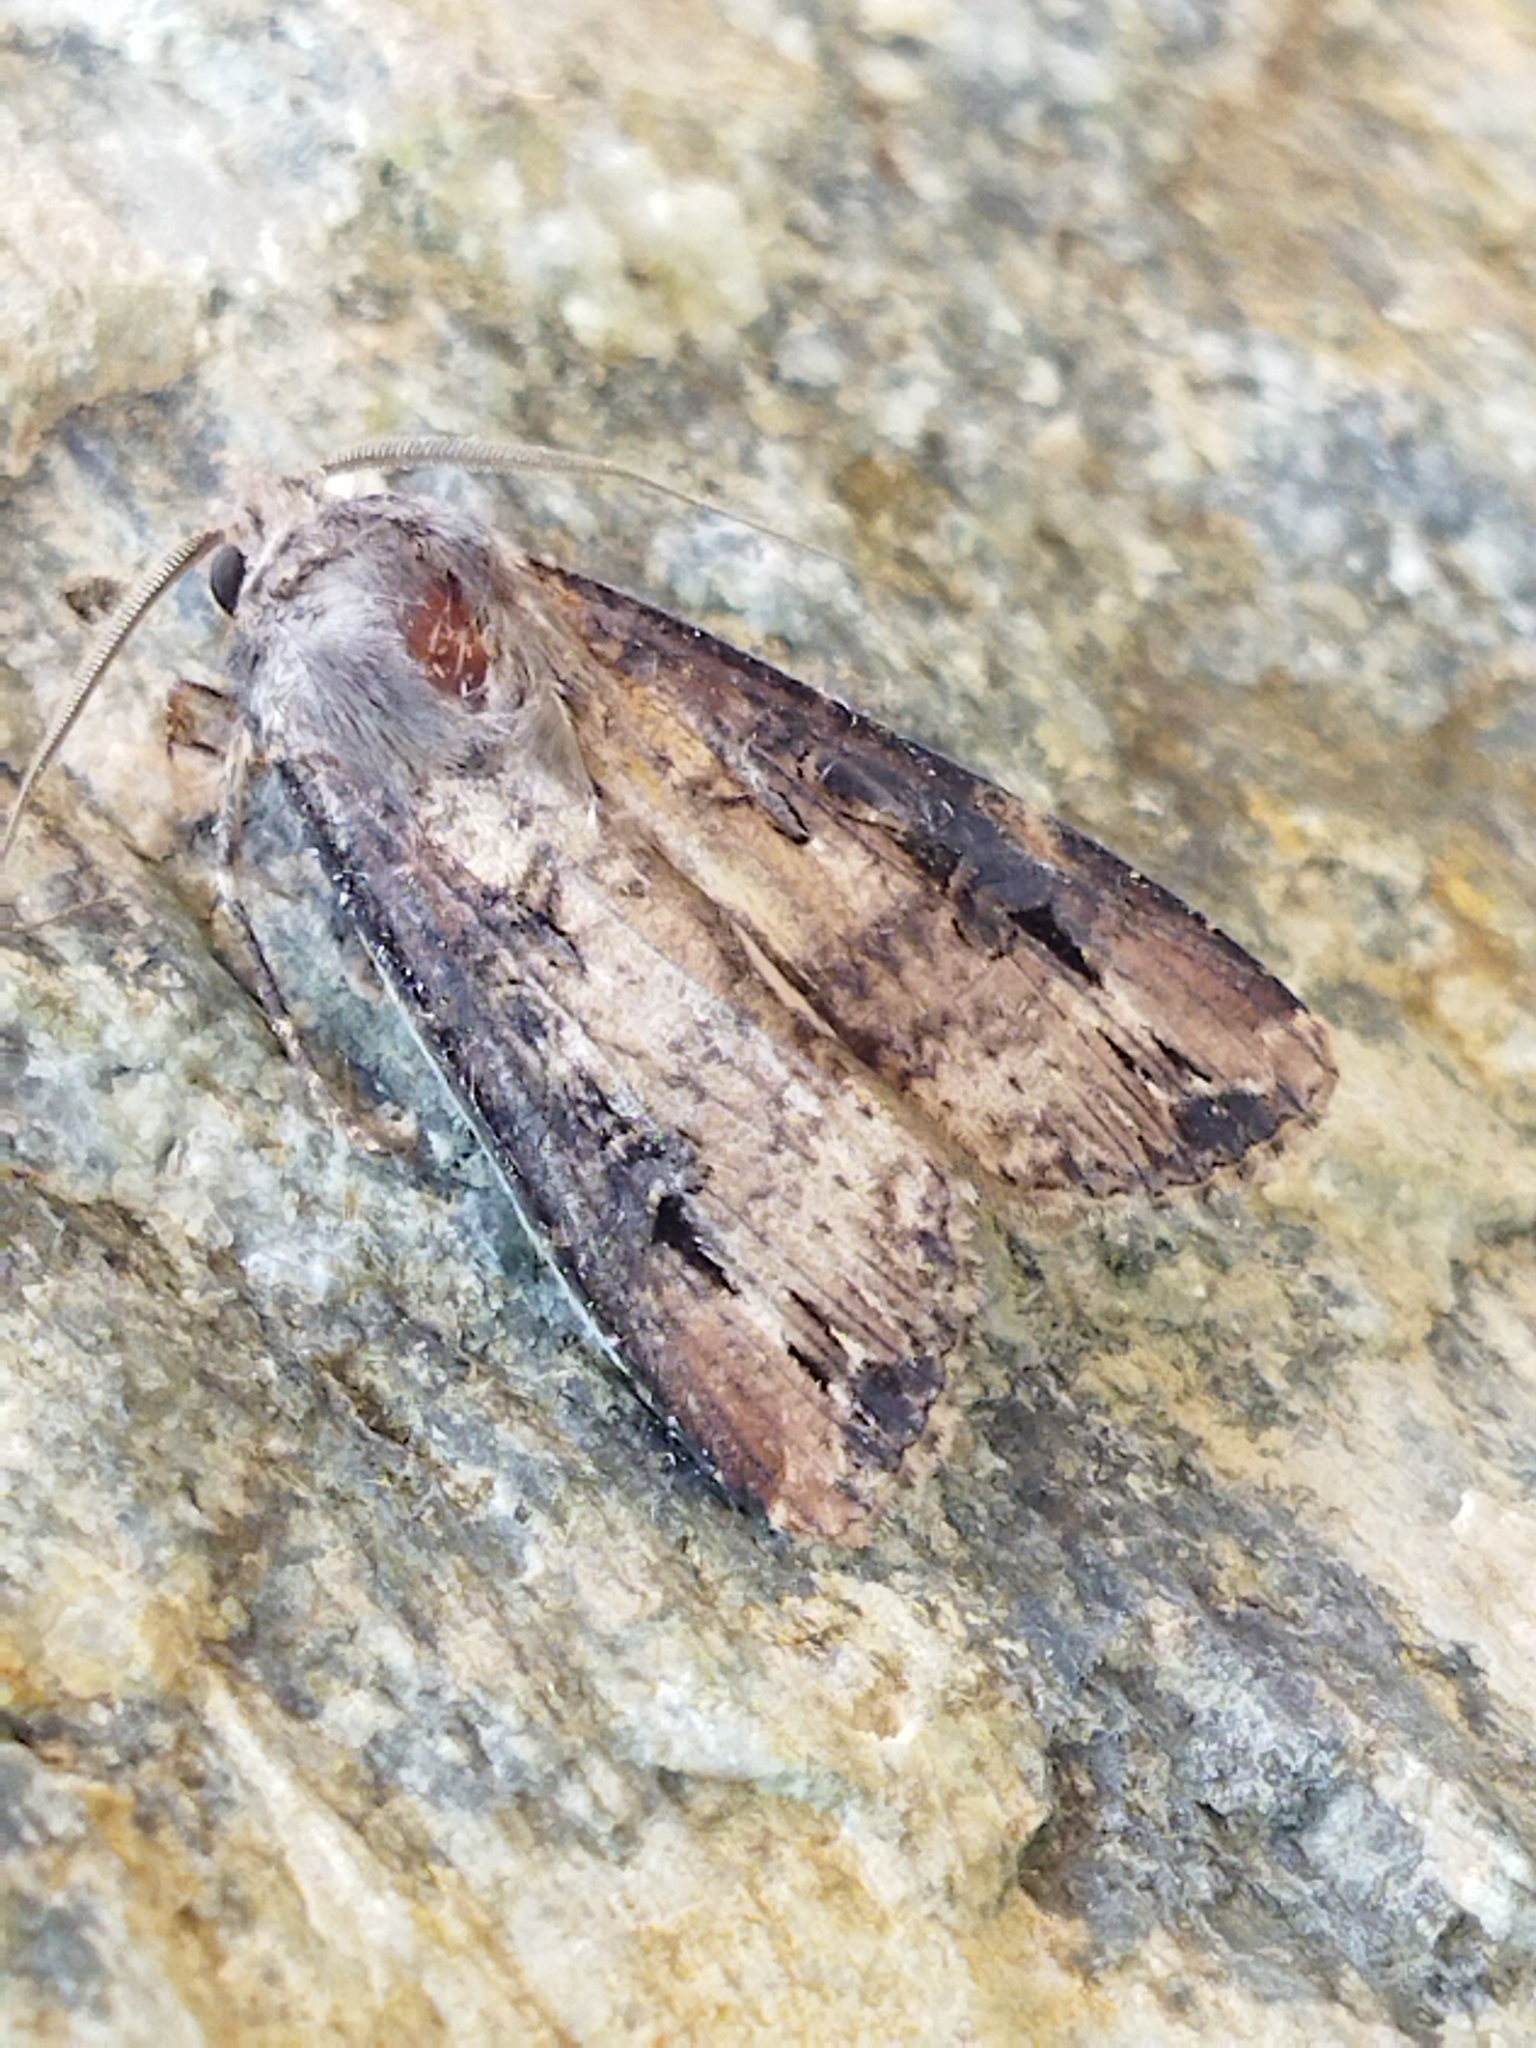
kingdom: Animalia
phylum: Arthropoda
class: Insecta
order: Lepidoptera
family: Noctuidae
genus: Agrotis
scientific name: Agrotis ipsilon
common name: Dark sword-grass
